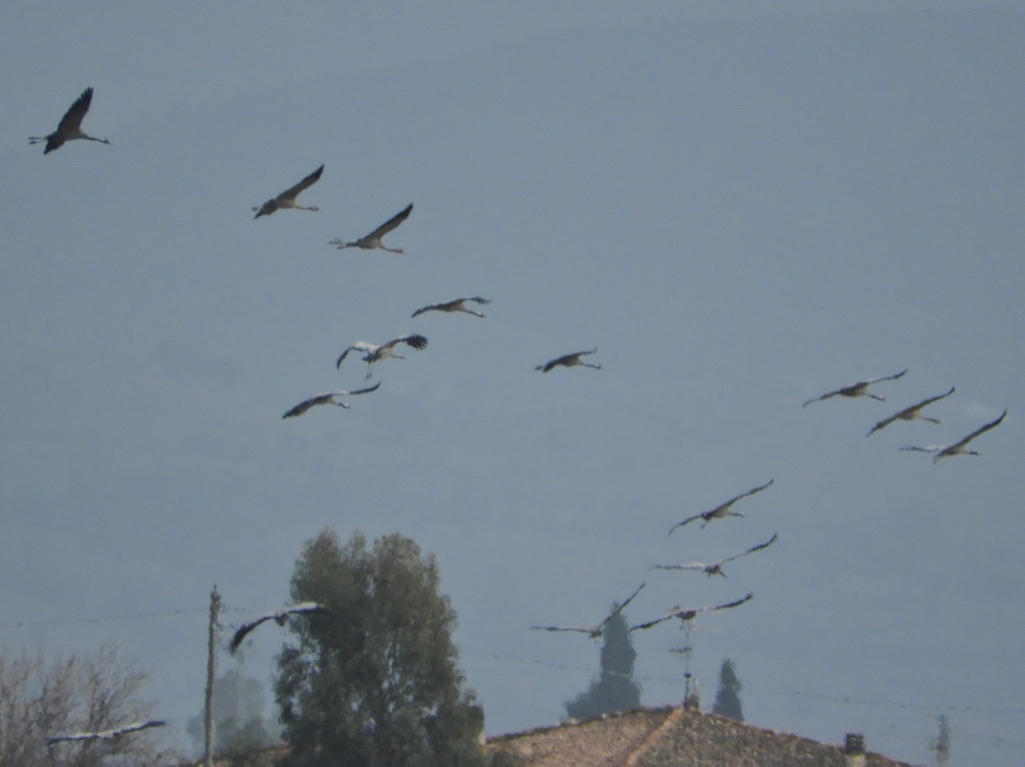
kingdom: Animalia
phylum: Chordata
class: Aves
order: Gruiformes
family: Gruidae
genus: Grus
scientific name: Grus grus
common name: Common crane
